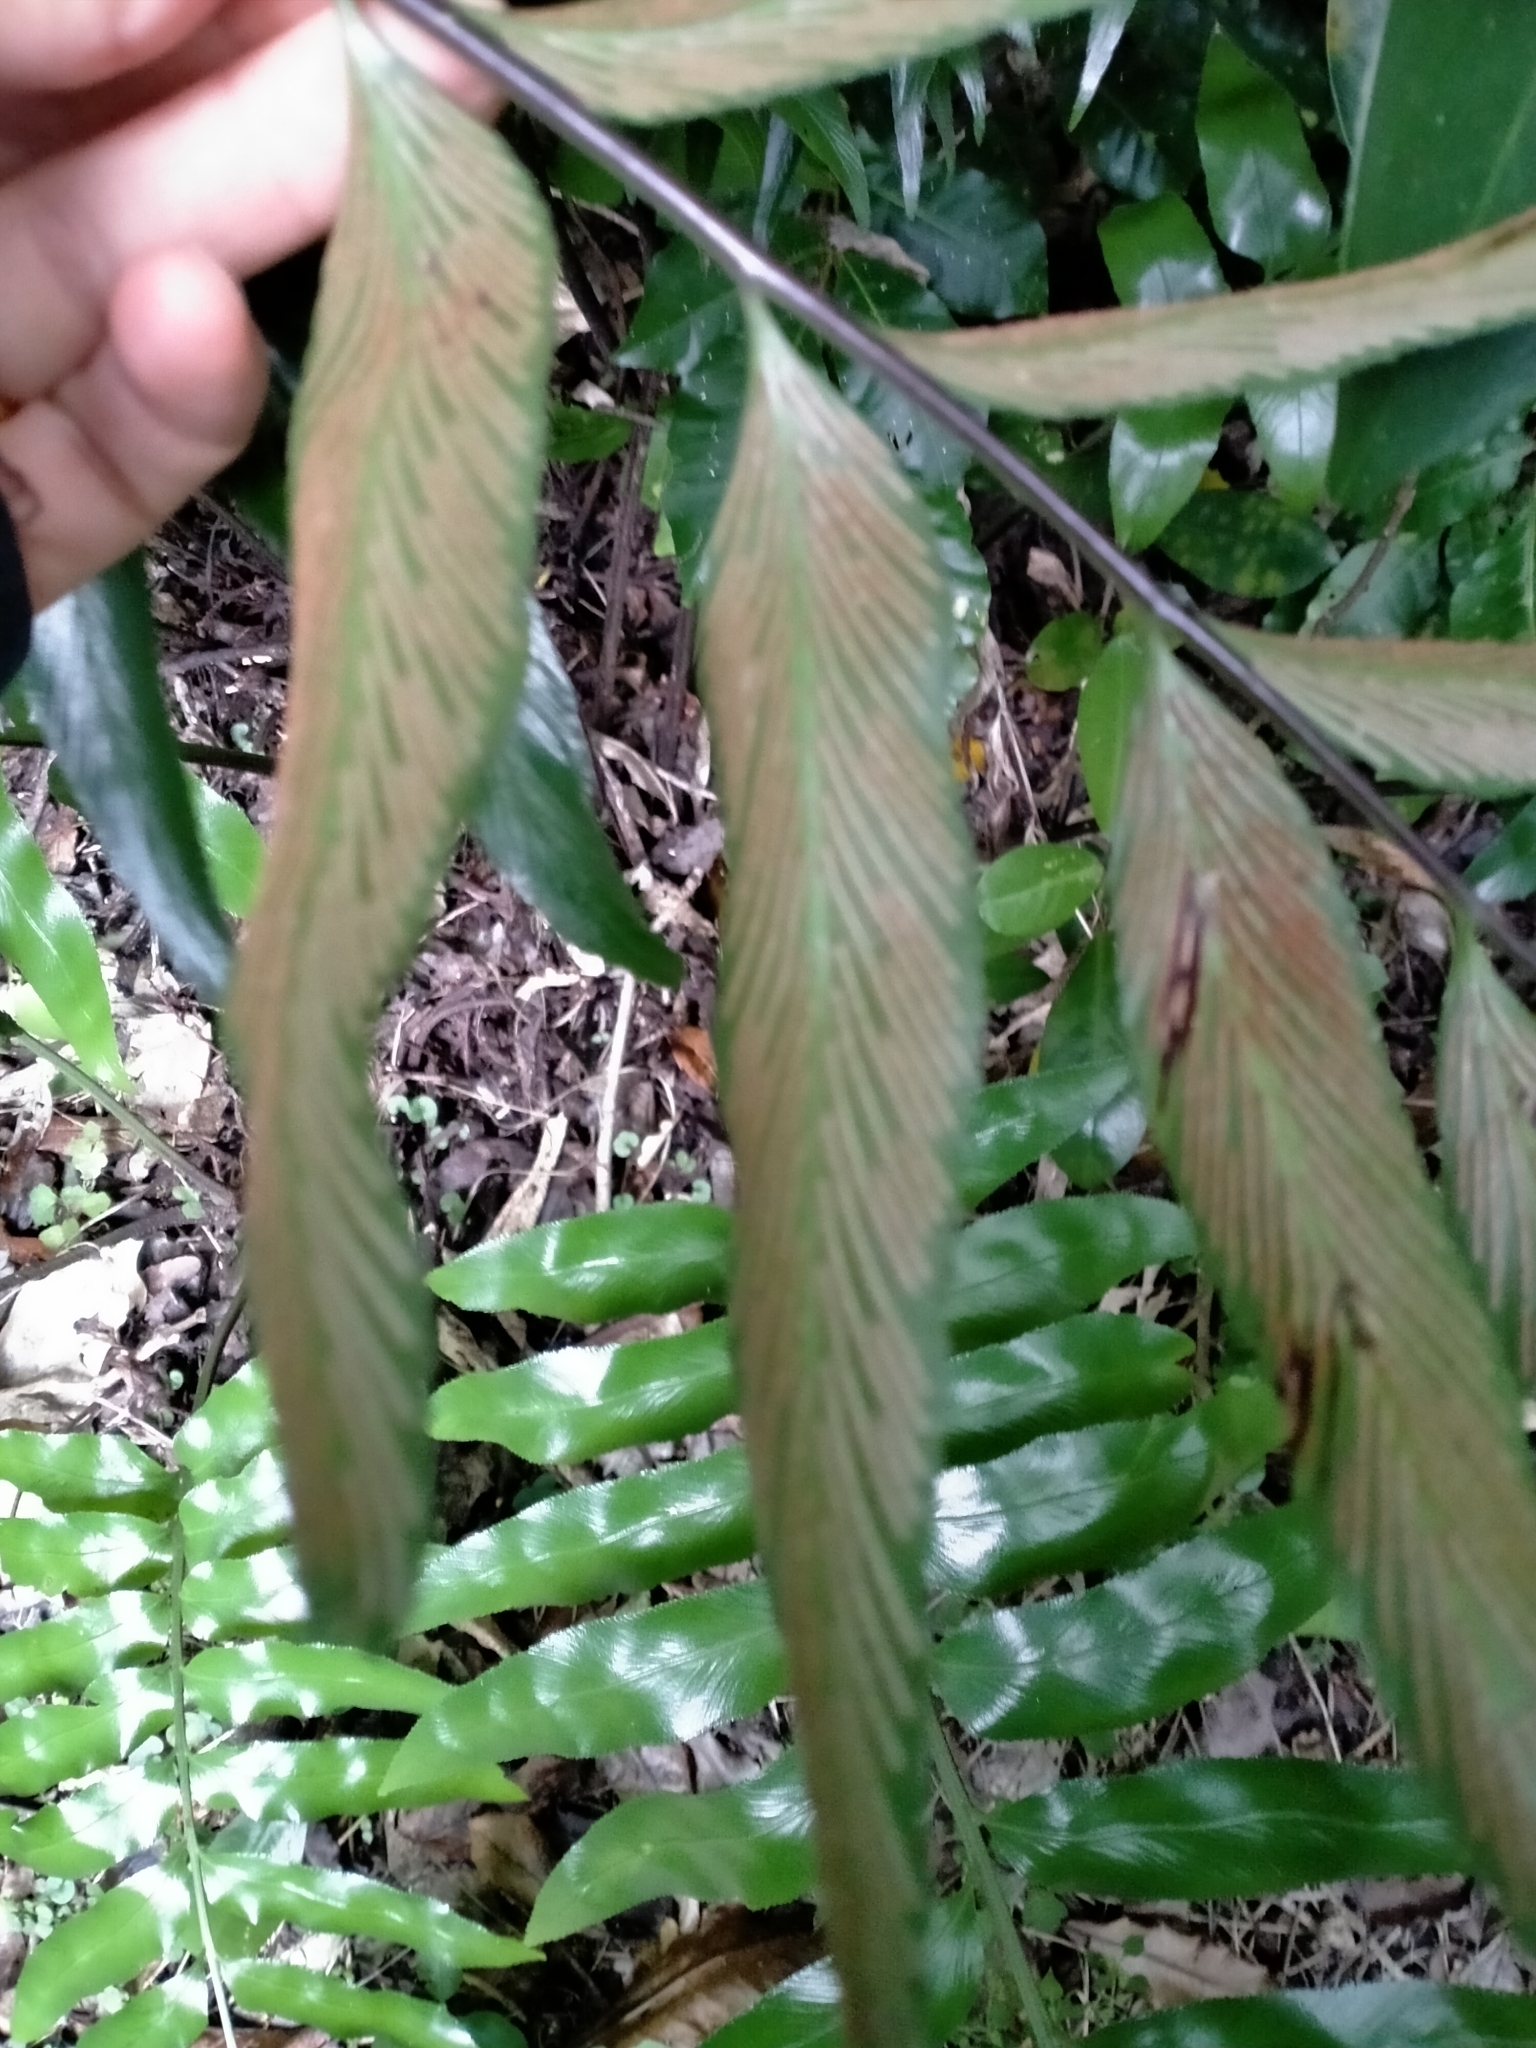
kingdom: Plantae
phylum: Tracheophyta
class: Polypodiopsida
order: Polypodiales
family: Aspleniaceae
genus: Asplenium
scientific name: Asplenium oblongifolium
